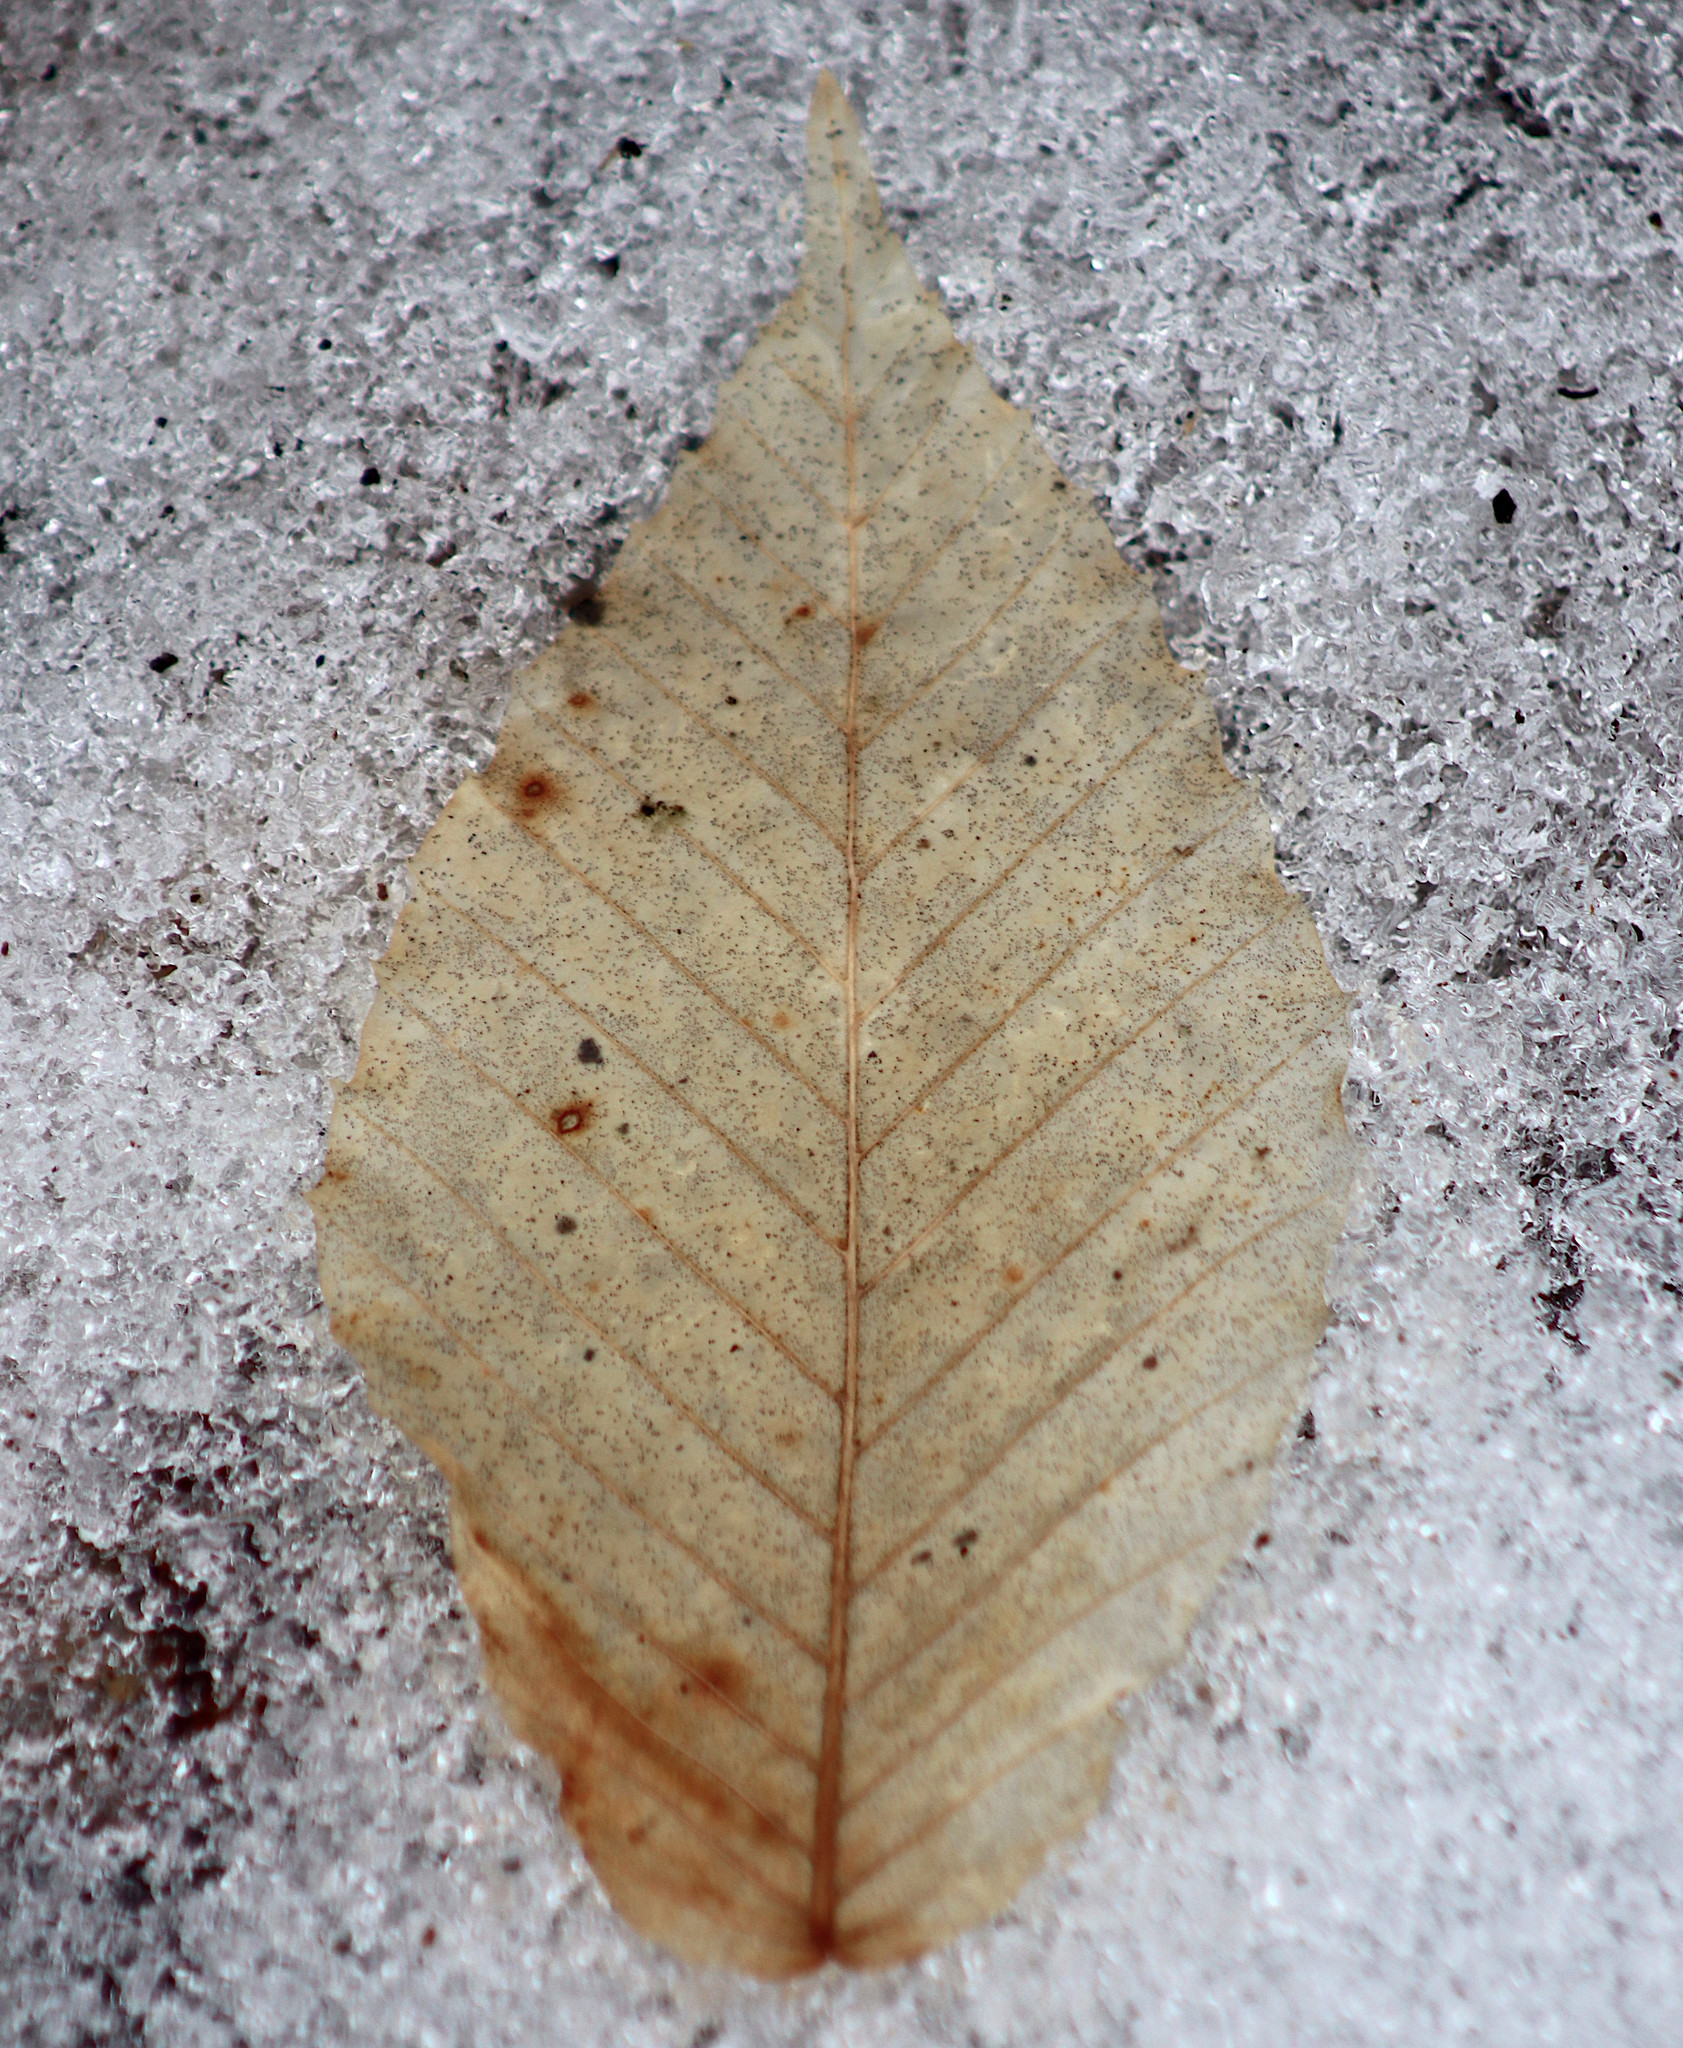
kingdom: Plantae
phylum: Tracheophyta
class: Magnoliopsida
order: Fagales
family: Fagaceae
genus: Fagus
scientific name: Fagus grandifolia
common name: American beech
